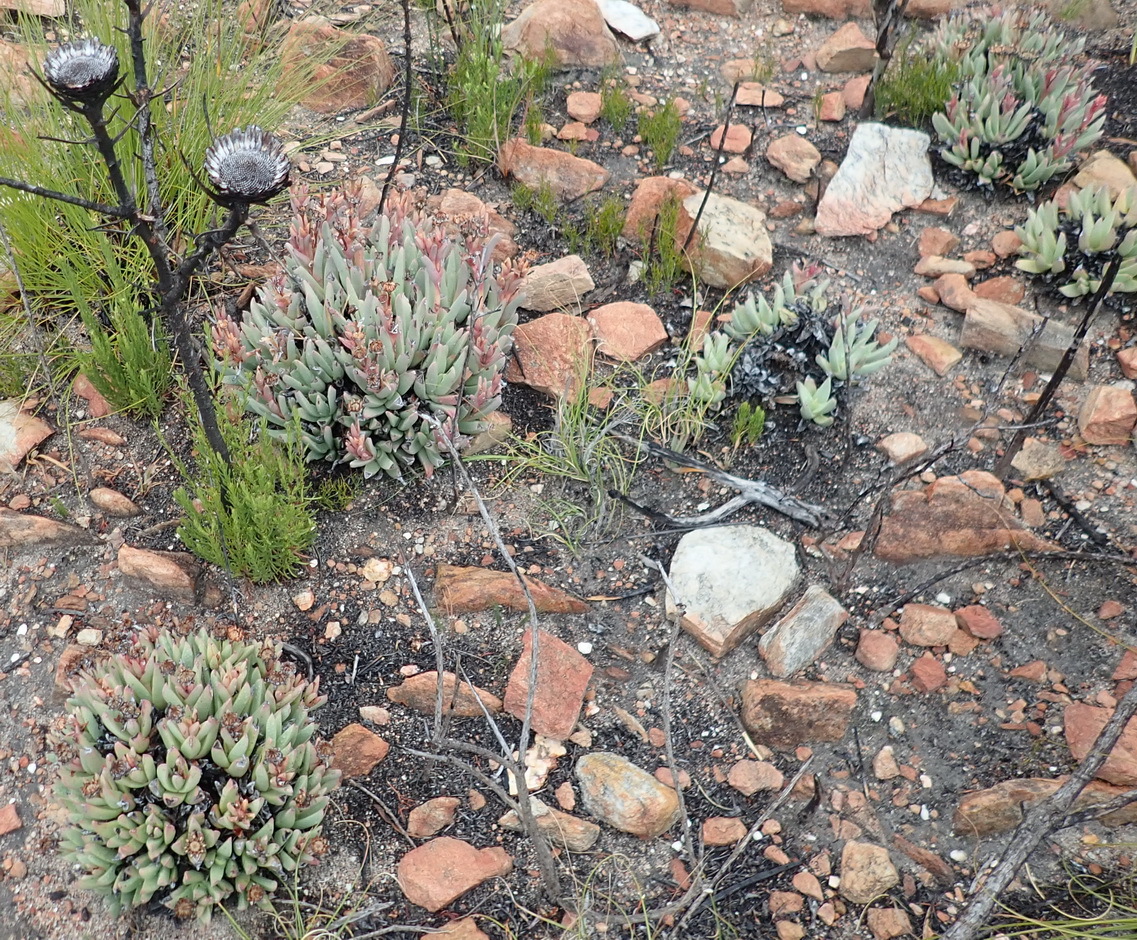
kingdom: Plantae
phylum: Tracheophyta
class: Magnoliopsida
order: Caryophyllales
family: Aizoaceae
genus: Machairophyllum
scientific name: Machairophyllum albidum
